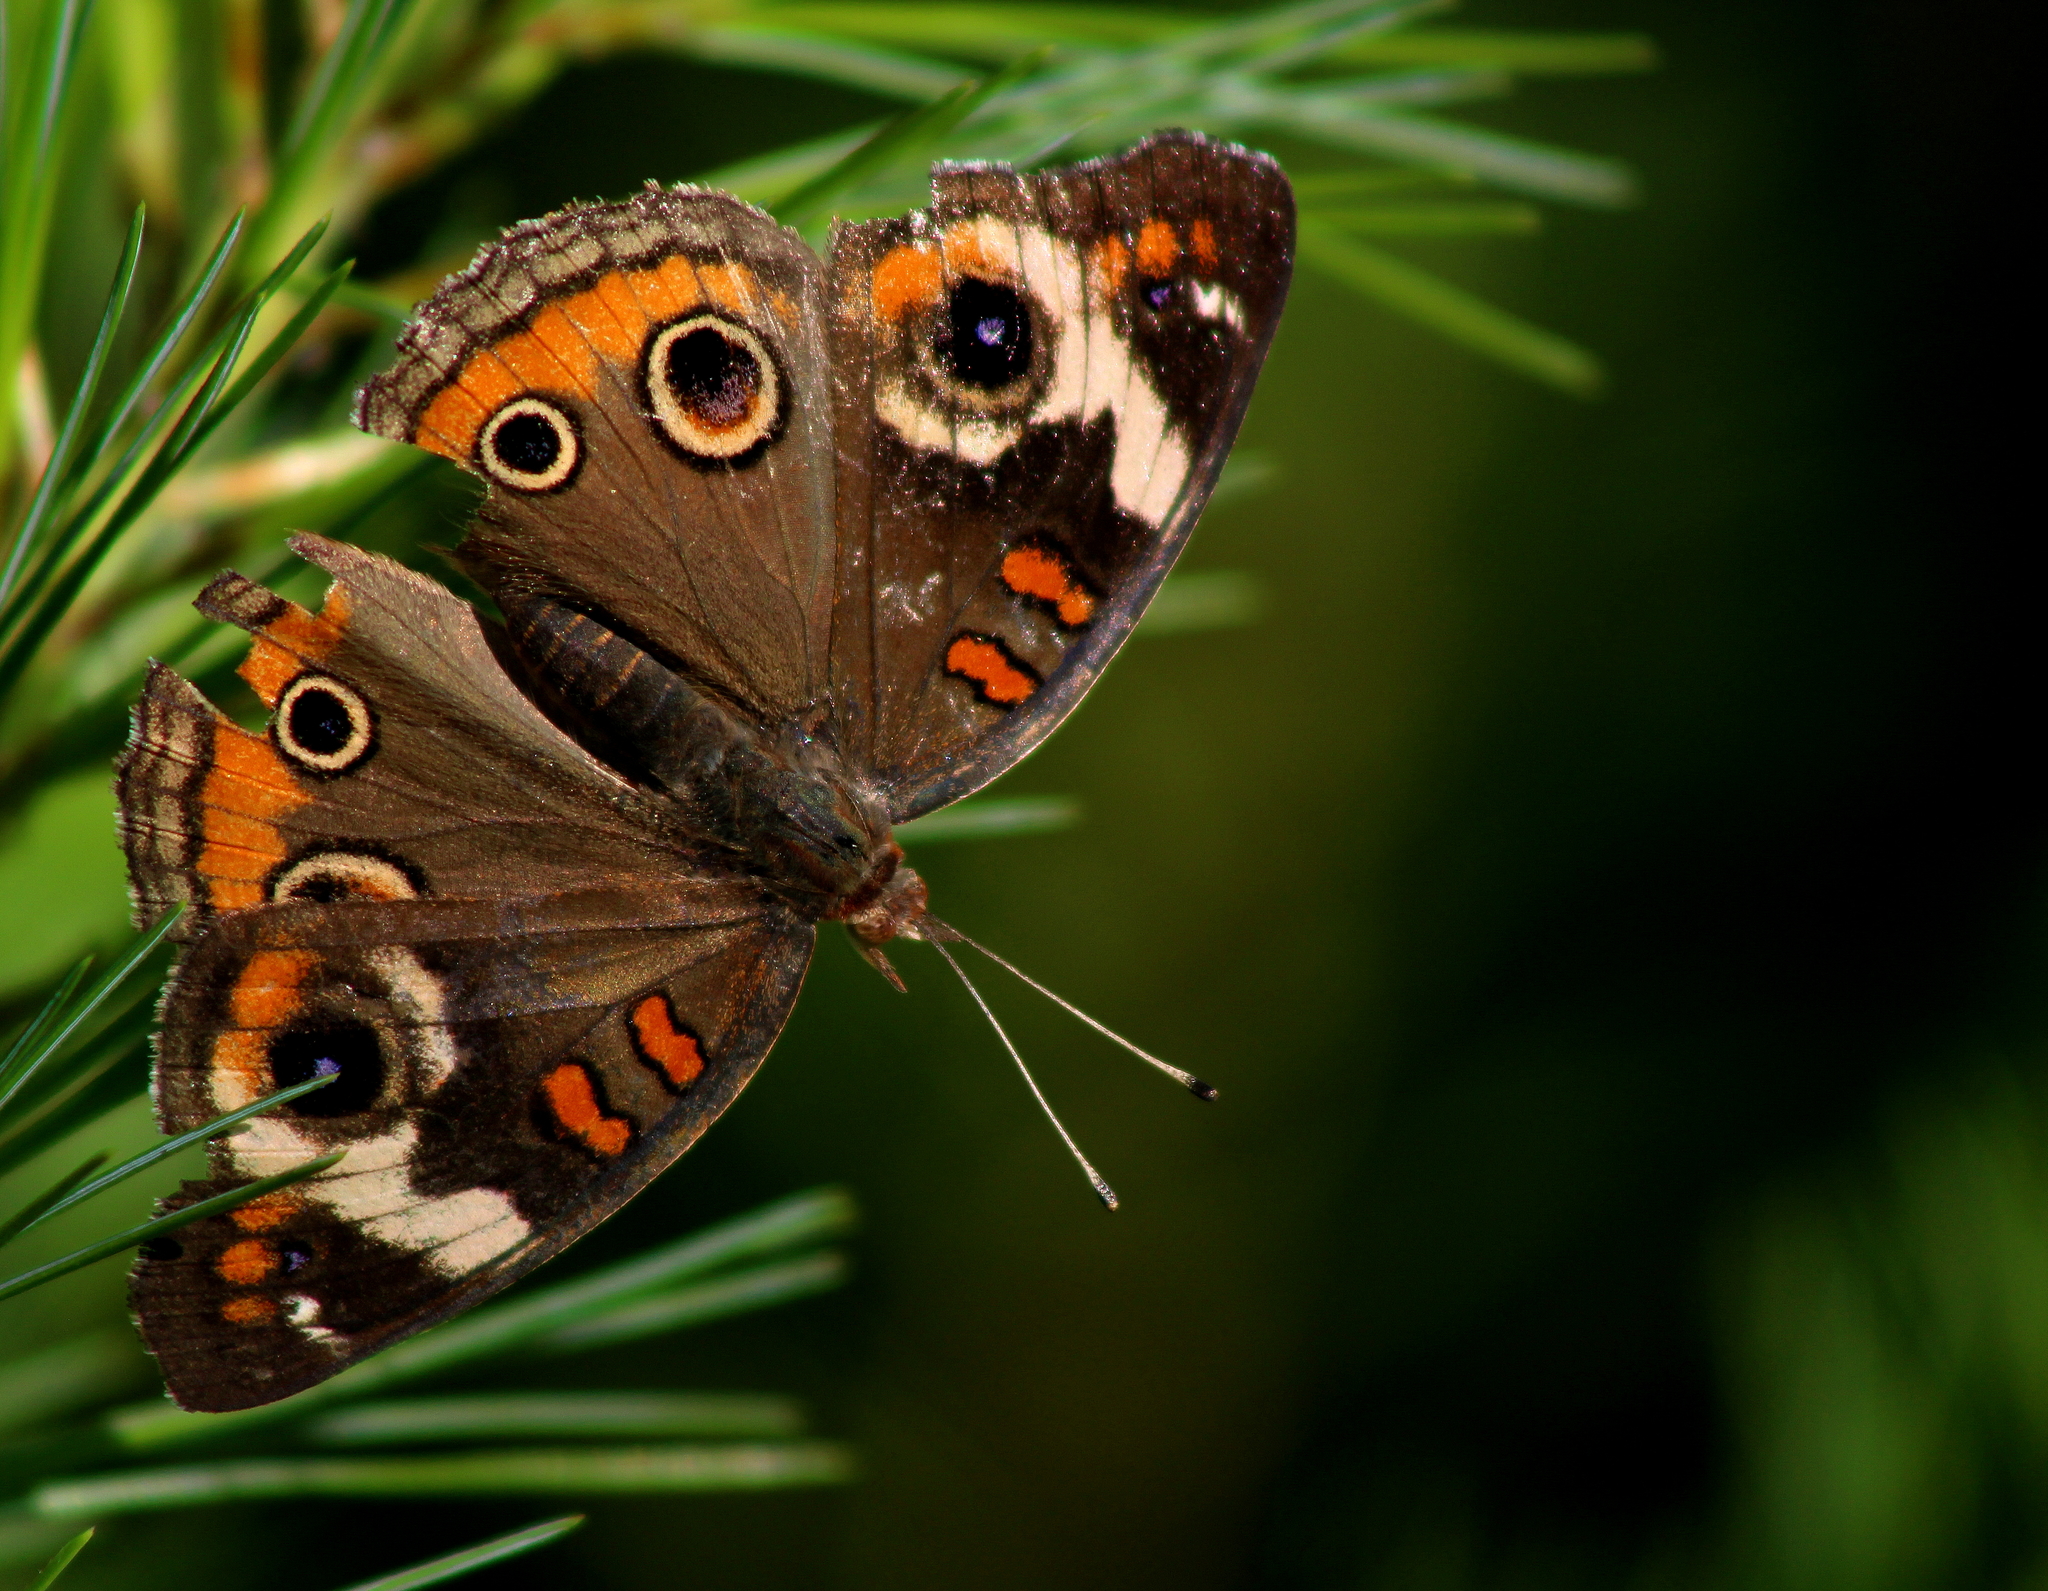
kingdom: Animalia
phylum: Arthropoda
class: Insecta
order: Lepidoptera
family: Nymphalidae
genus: Junonia
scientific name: Junonia coenia
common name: Common buckeye
